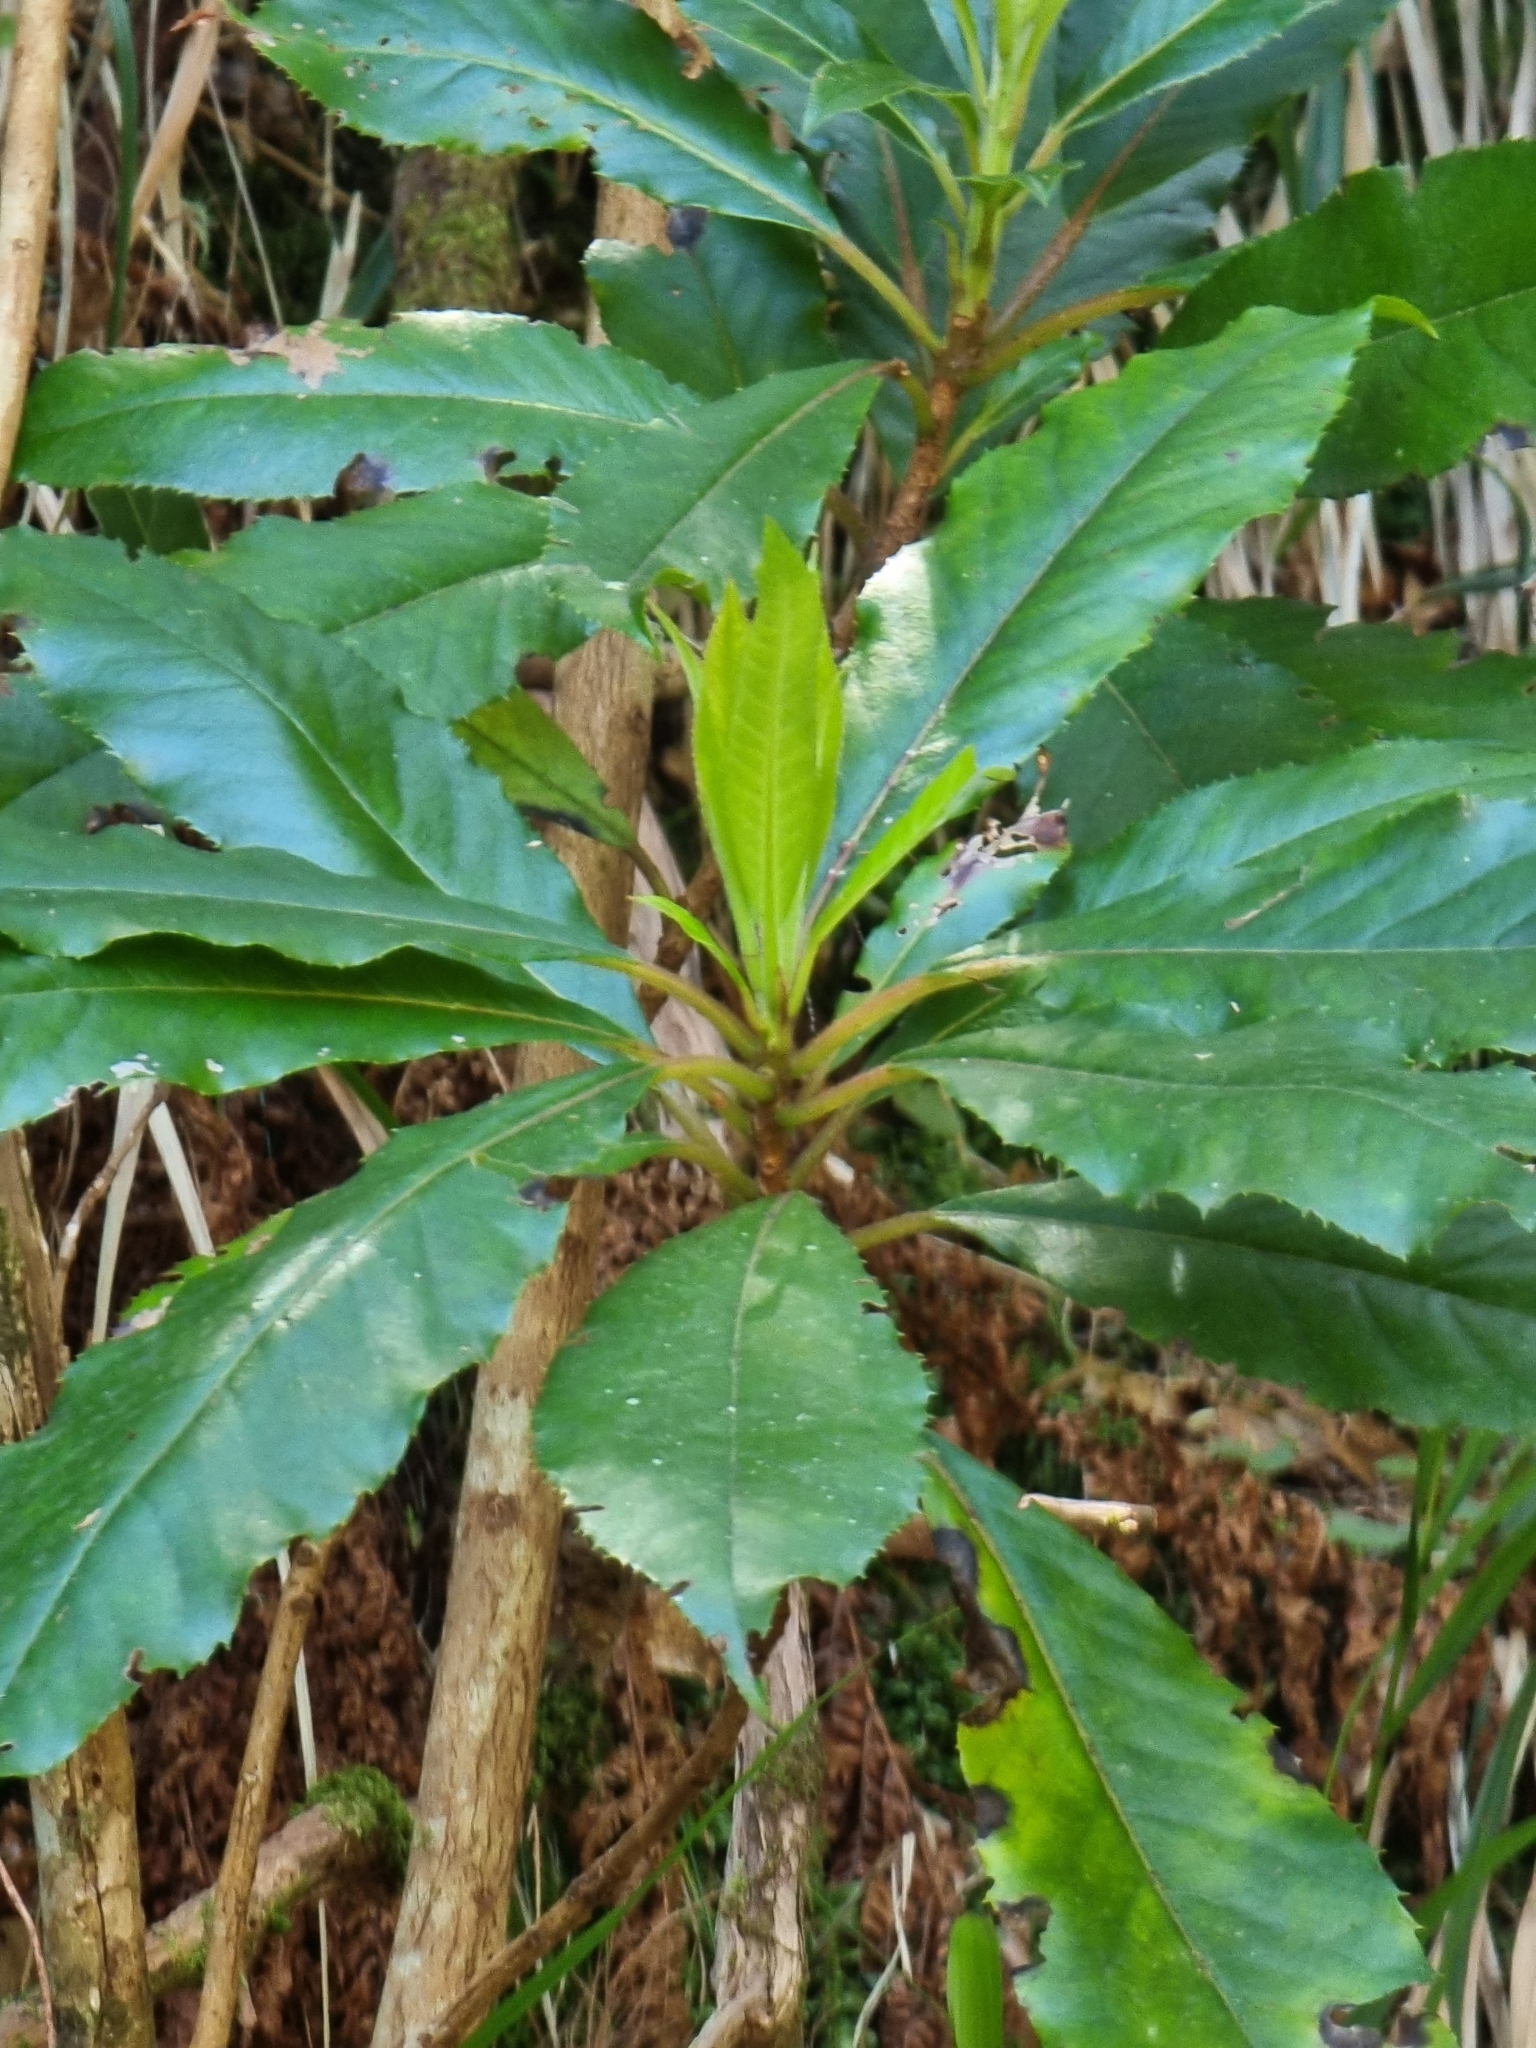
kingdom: Plantae
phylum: Tracheophyta
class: Magnoliopsida
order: Ericales
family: Clethraceae
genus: Clethra
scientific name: Clethra arborea
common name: Lily-of-the-valley-tree
